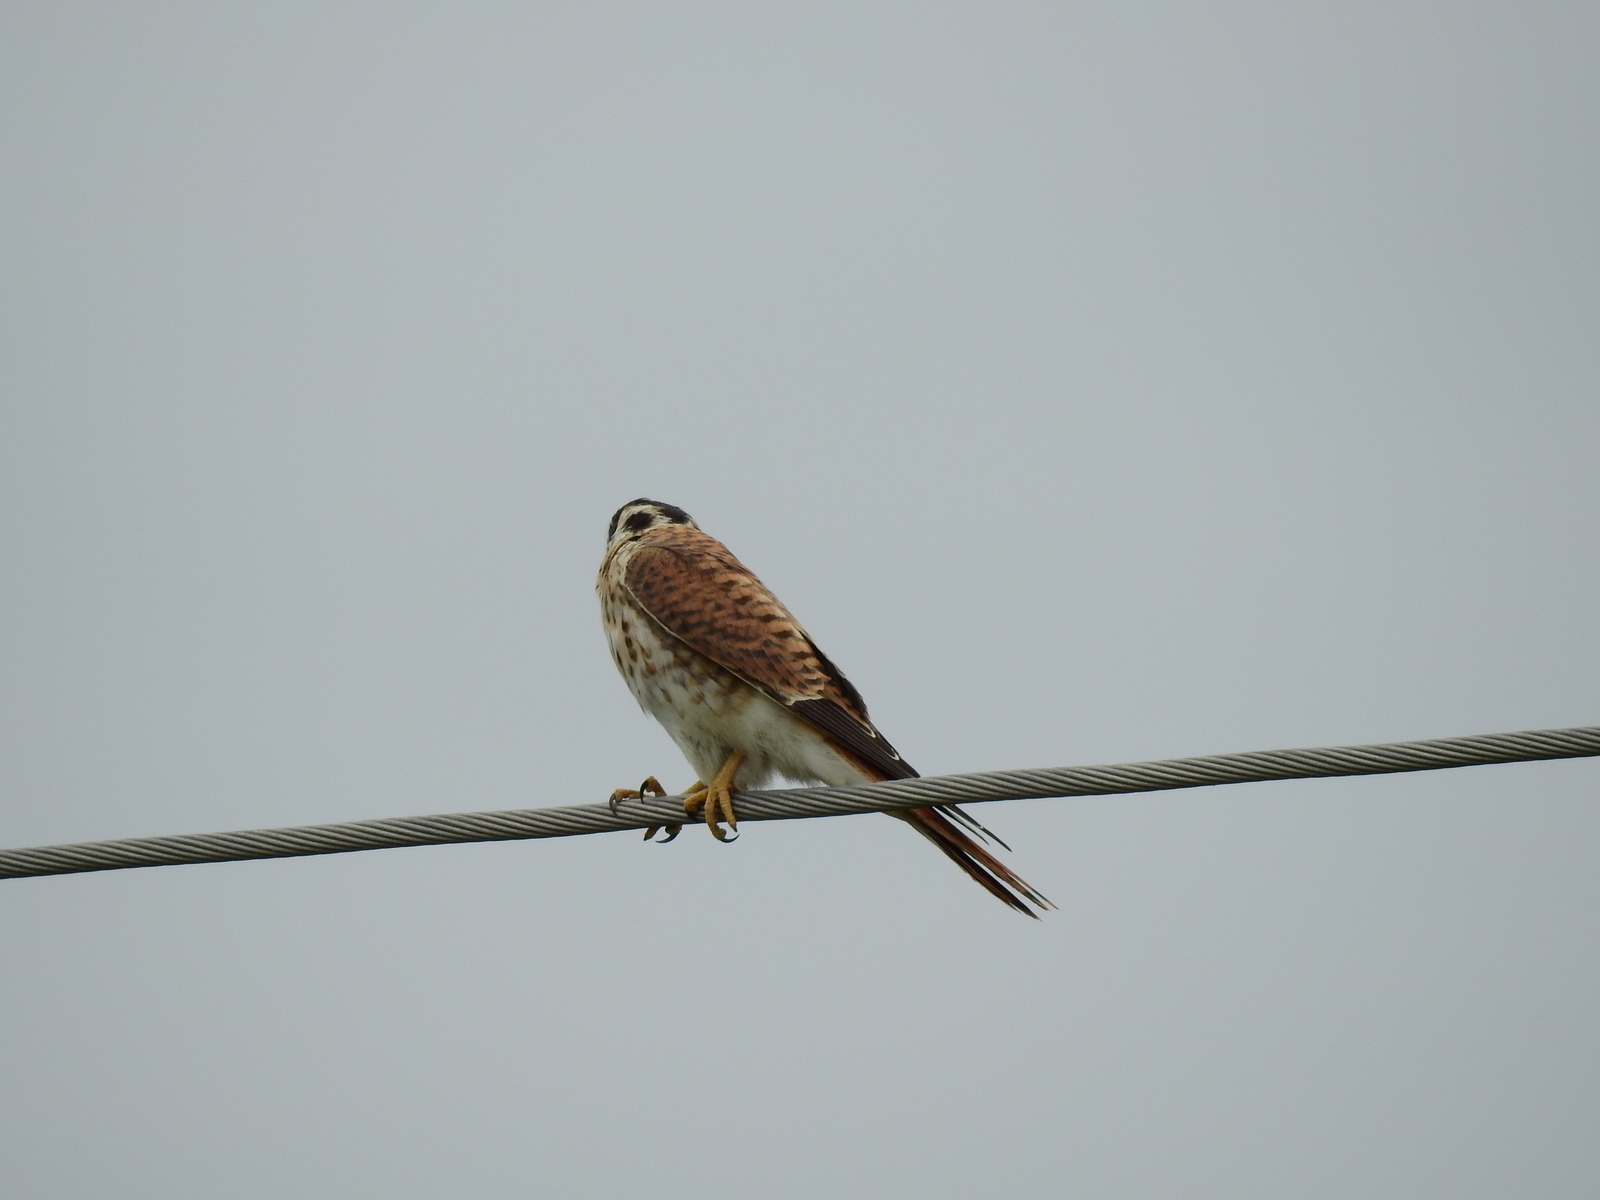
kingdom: Animalia
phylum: Chordata
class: Aves
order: Falconiformes
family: Falconidae
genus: Falco
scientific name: Falco sparverius
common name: American kestrel
